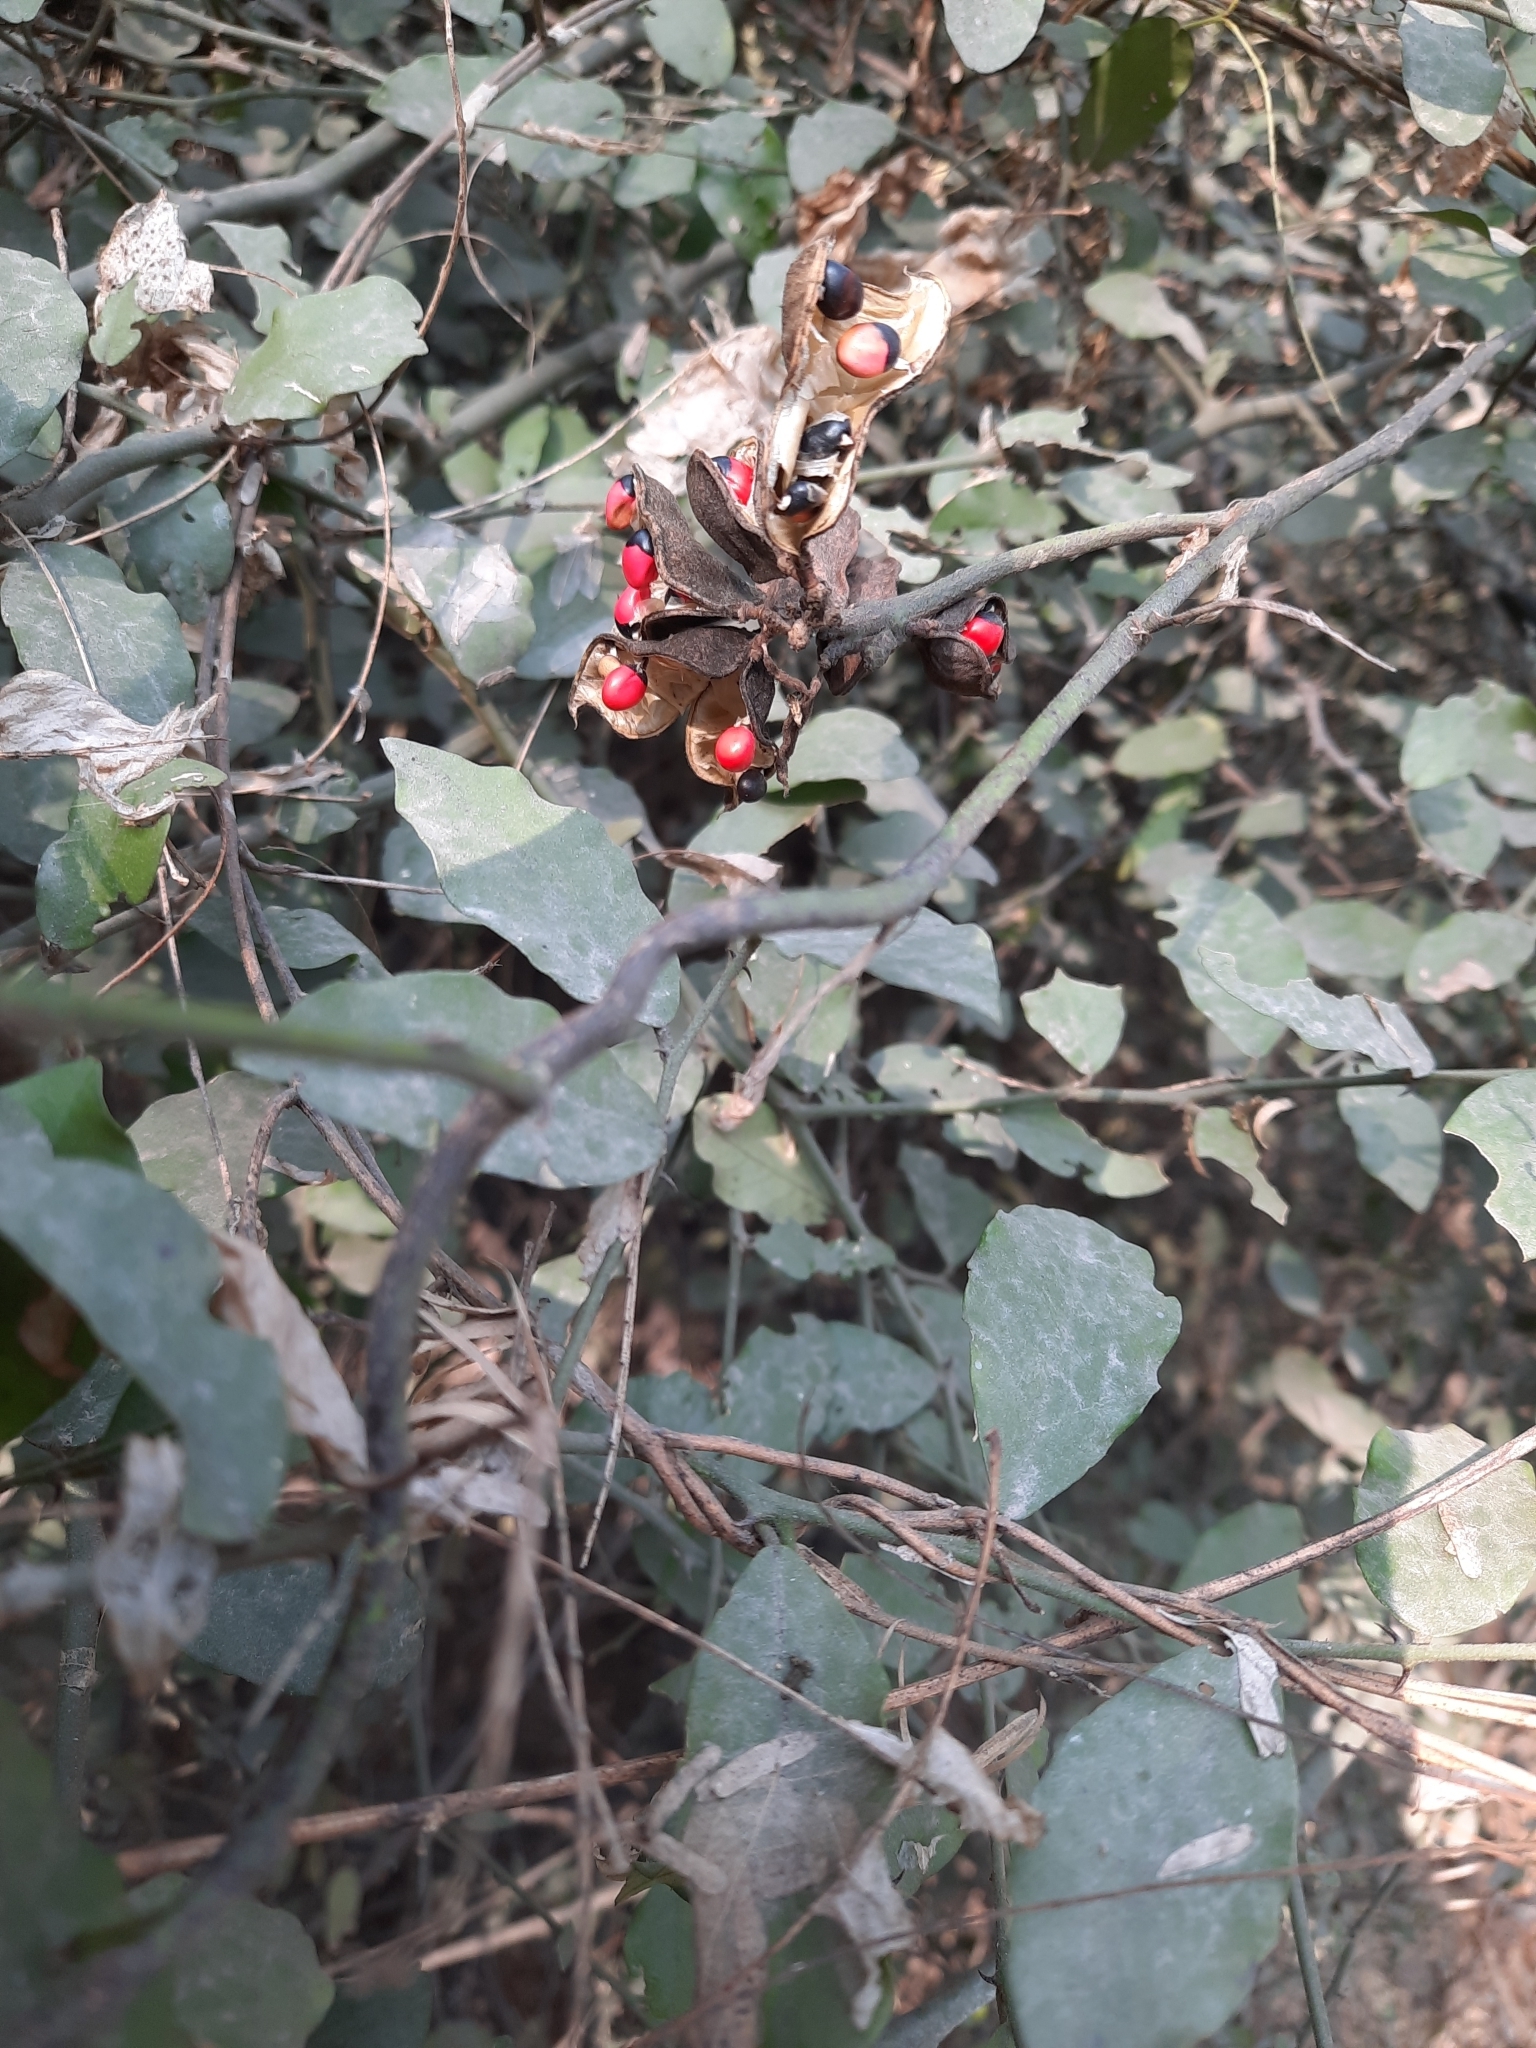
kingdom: Plantae
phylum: Tracheophyta
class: Magnoliopsida
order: Fabales
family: Fabaceae
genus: Abrus
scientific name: Abrus precatorius
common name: Rosarypea
